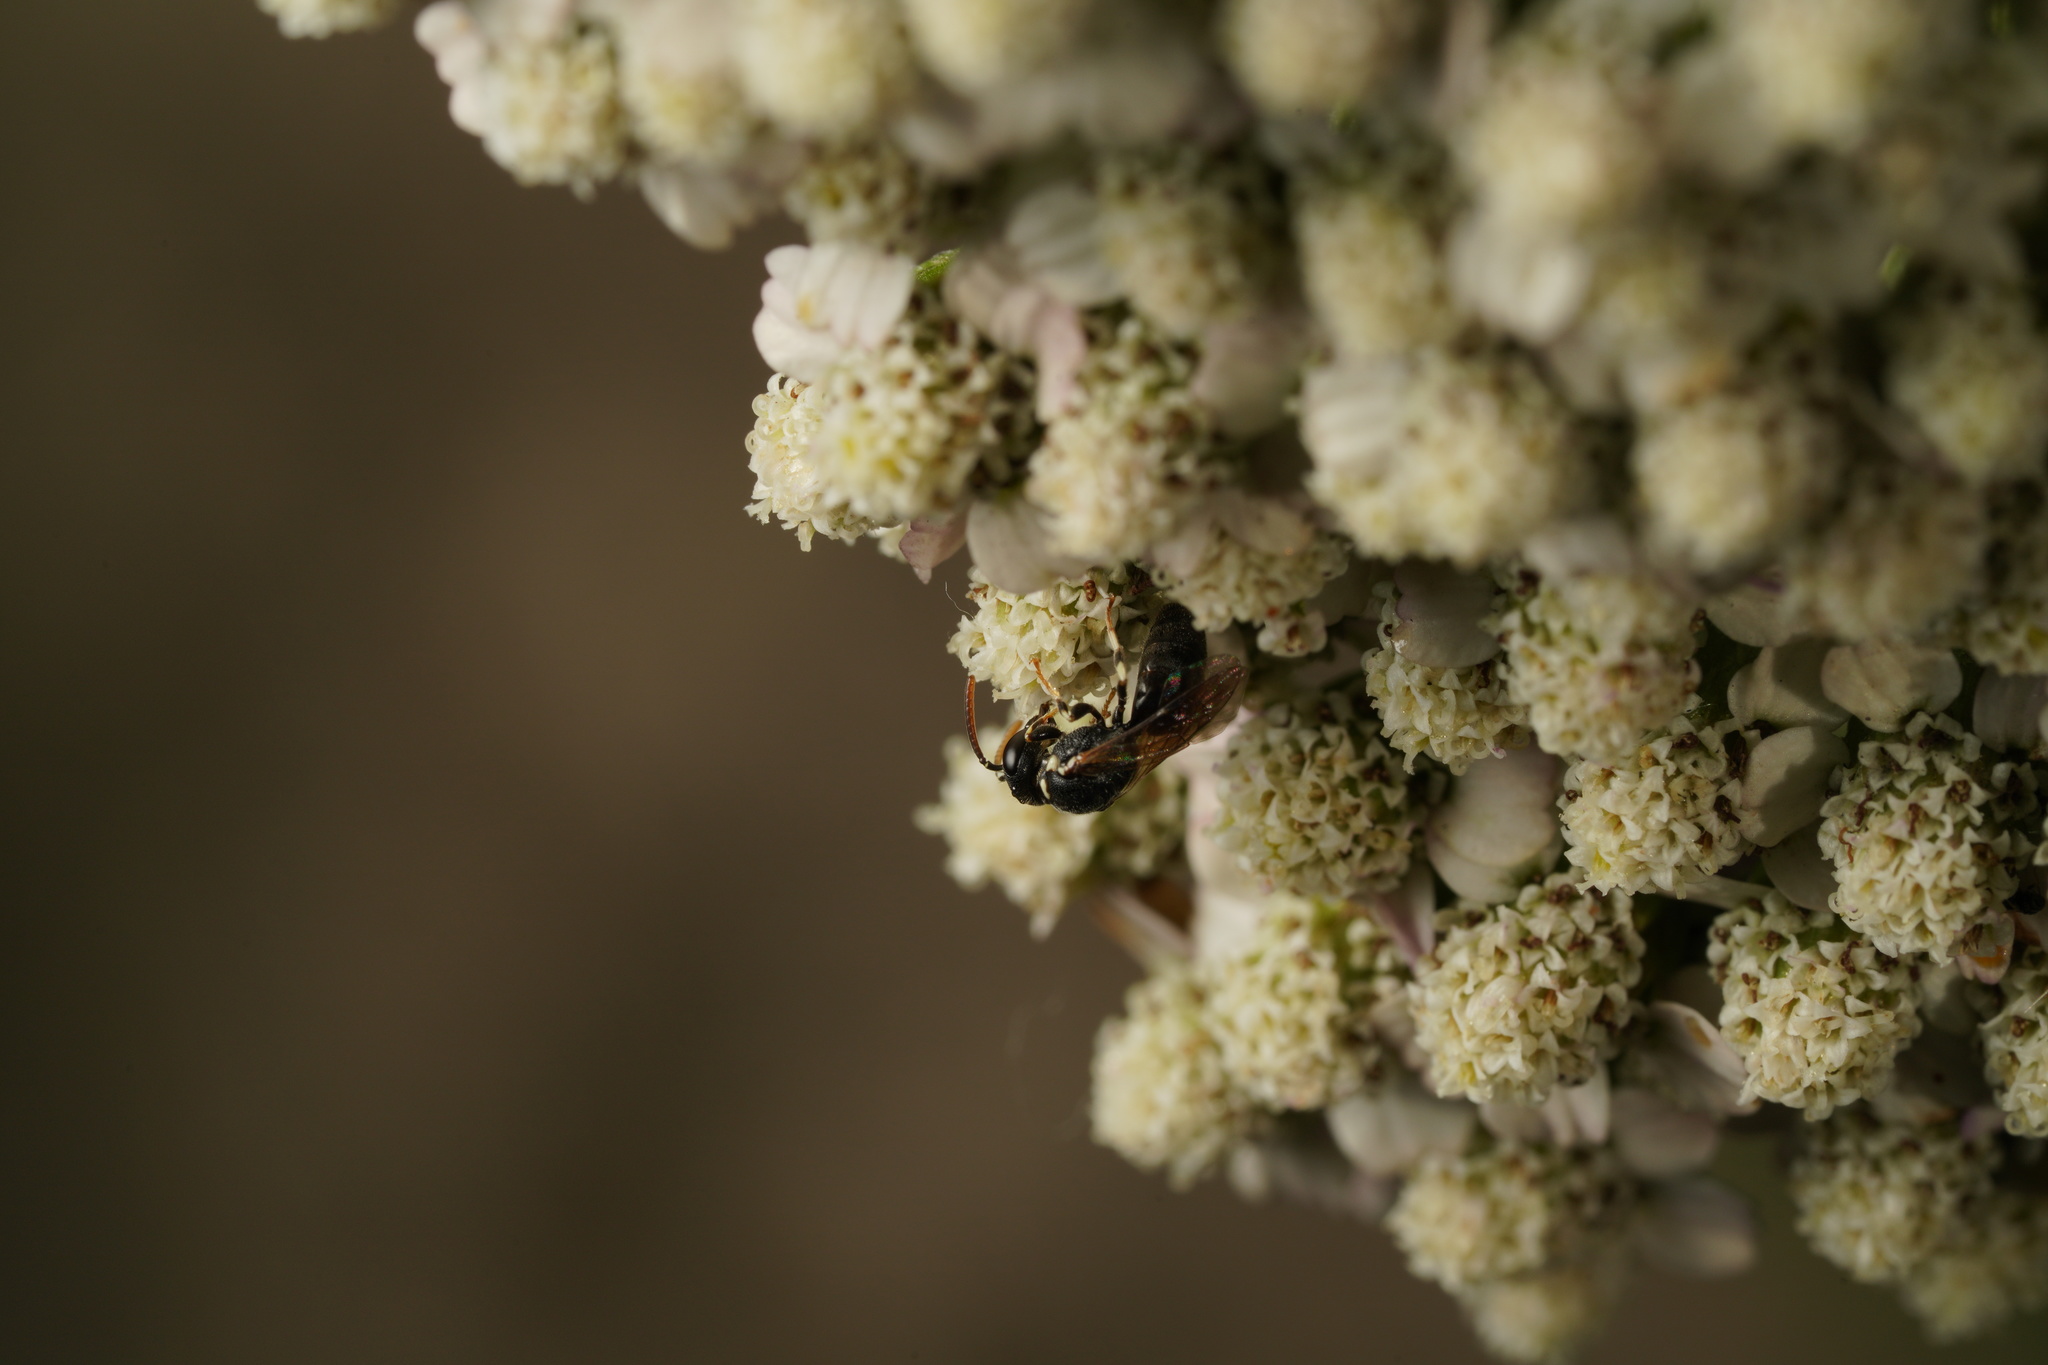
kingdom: Animalia
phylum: Arthropoda
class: Insecta
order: Hymenoptera
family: Colletidae
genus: Hylaeus
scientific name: Hylaeus
